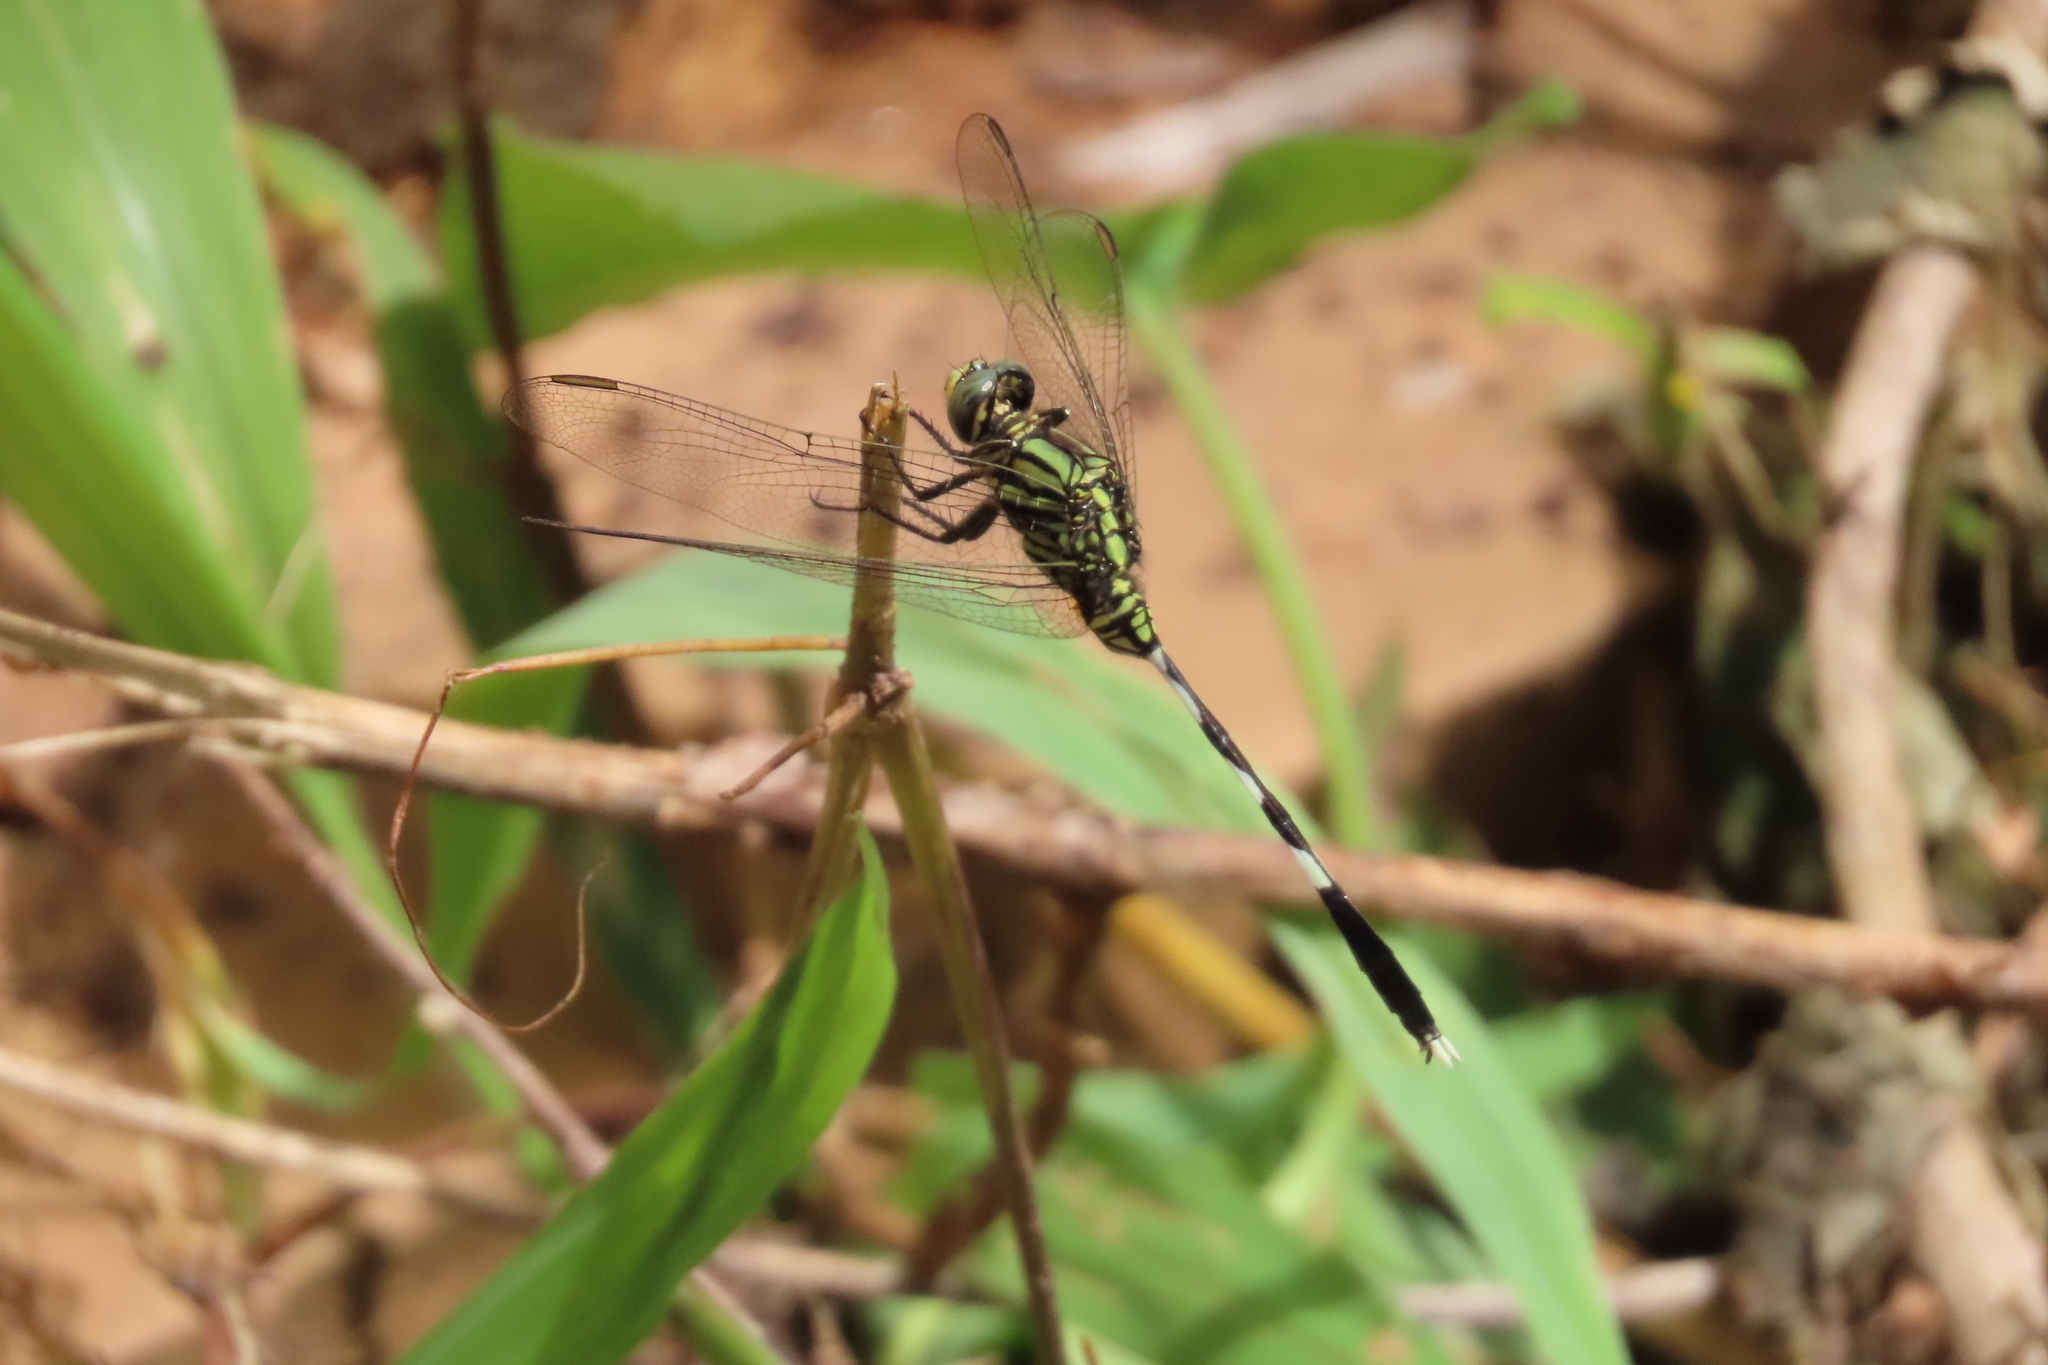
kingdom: Animalia
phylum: Arthropoda
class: Insecta
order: Odonata
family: Libellulidae
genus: Orthetrum
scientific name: Orthetrum sabina
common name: Slender skimmer
